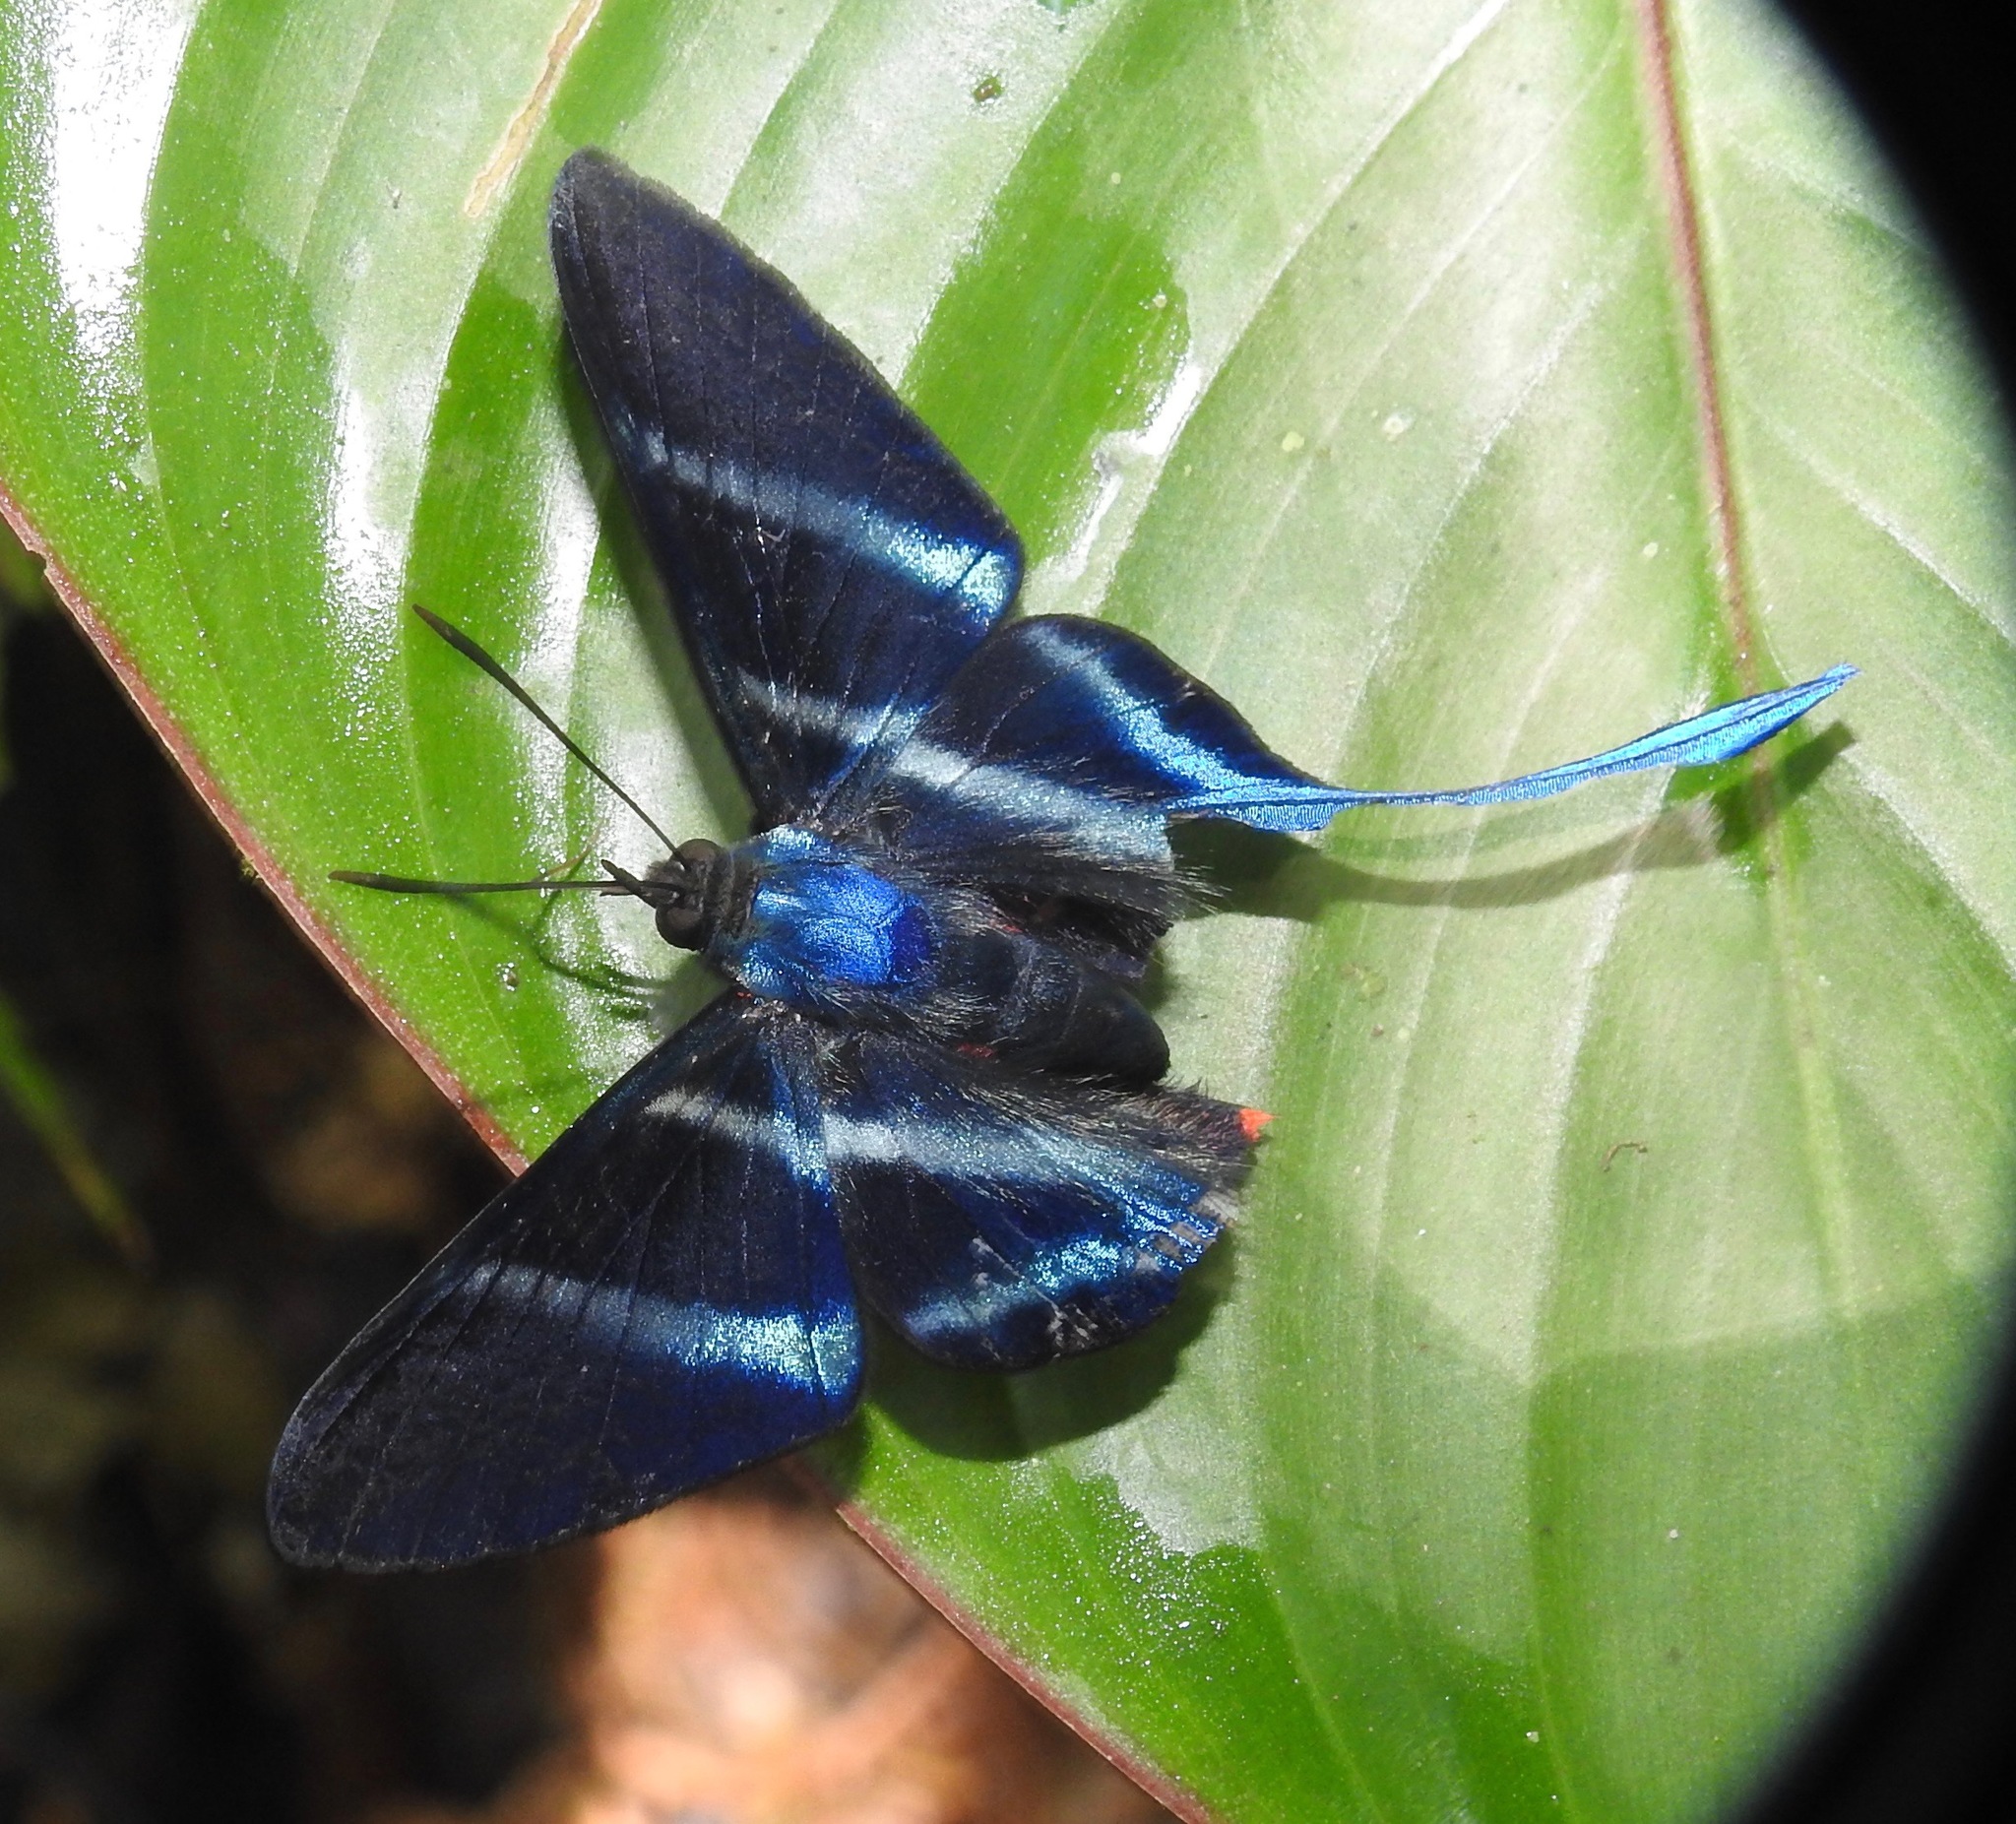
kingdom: Animalia
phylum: Arthropoda
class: Insecta
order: Lepidoptera
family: Riodinidae
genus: Rhetus
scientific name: Rhetus arcius
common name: Long-tailed metalmark
